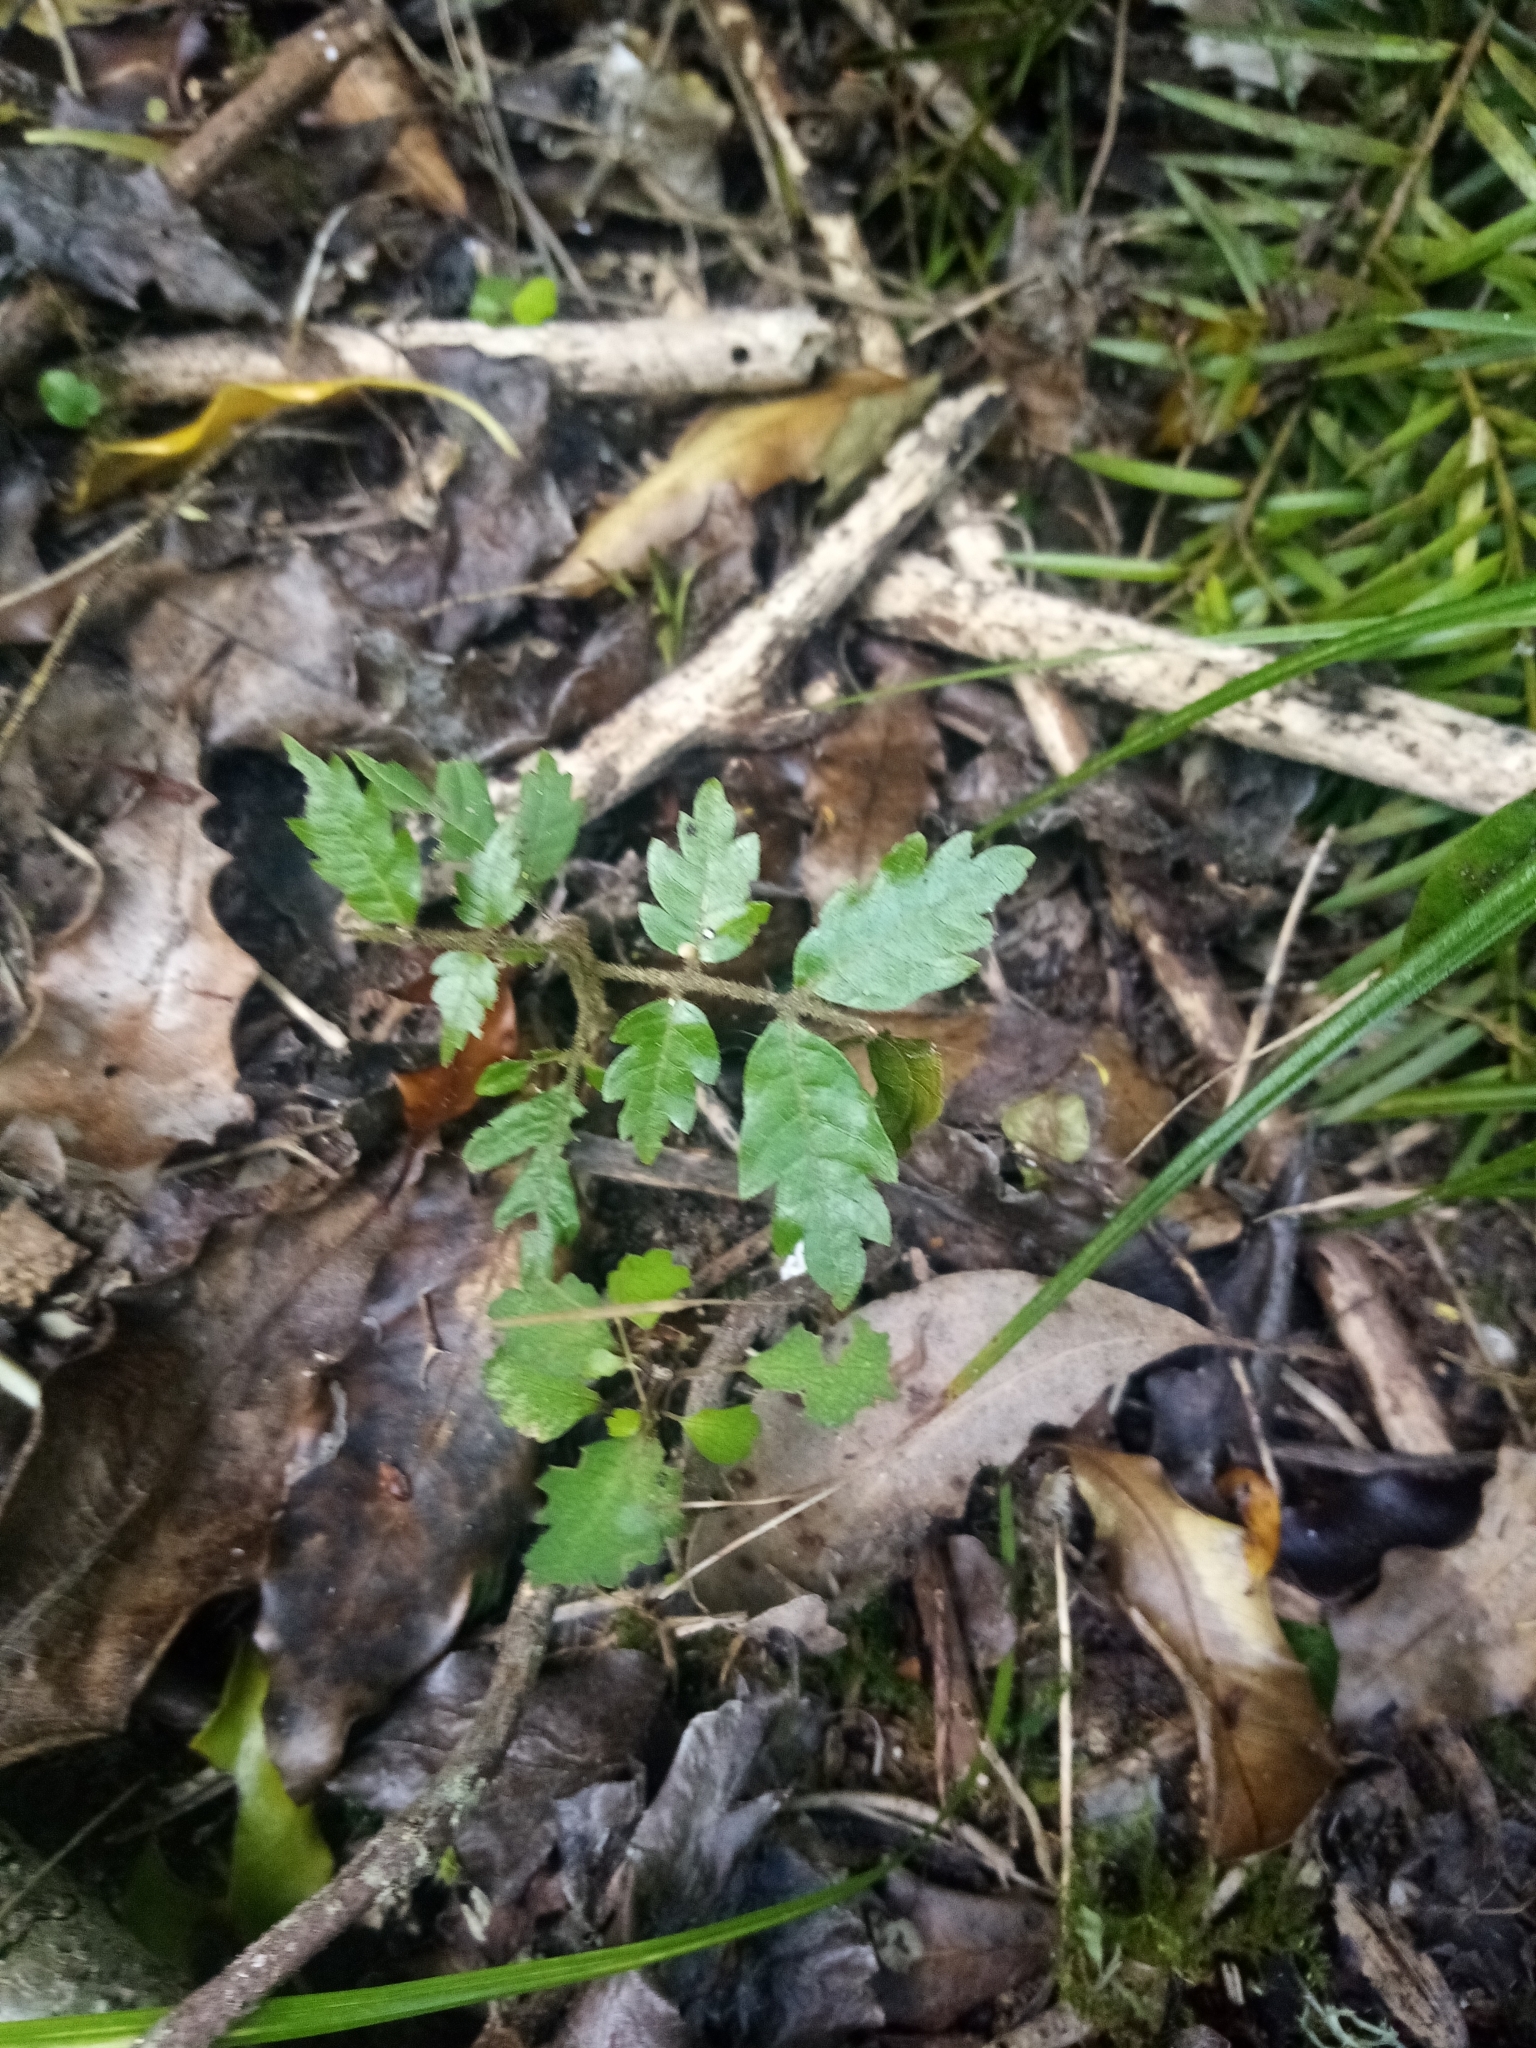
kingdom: Plantae
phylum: Tracheophyta
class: Magnoliopsida
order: Sapindales
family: Sapindaceae
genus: Alectryon
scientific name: Alectryon excelsus
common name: Three kings titoki
